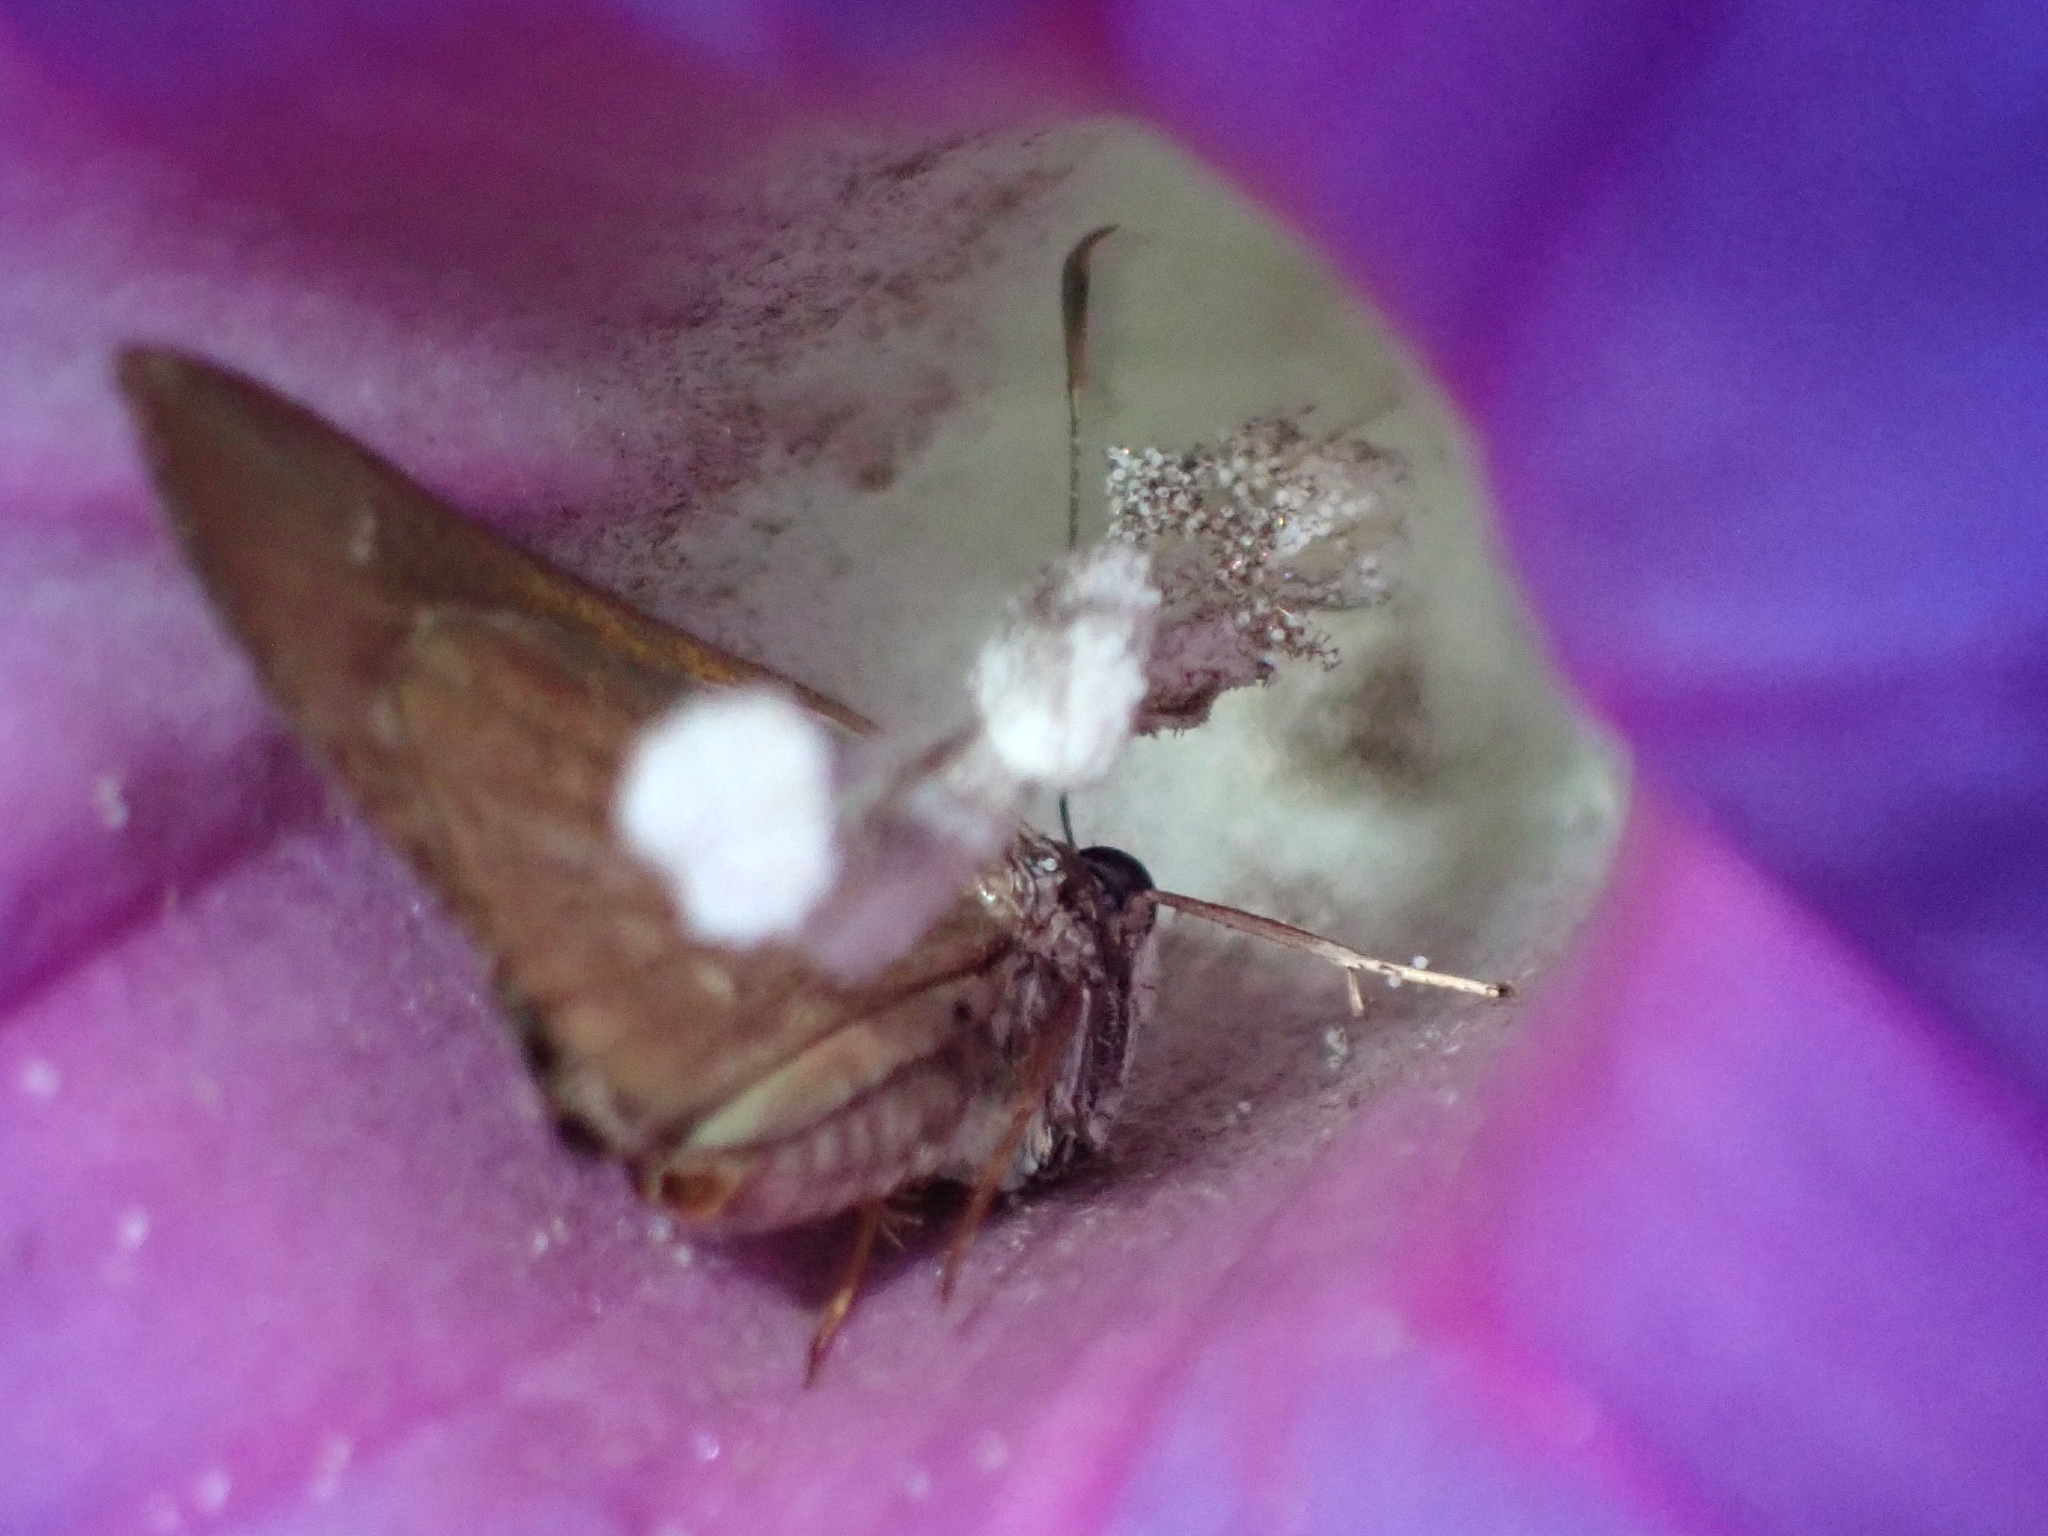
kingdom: Animalia
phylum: Arthropoda
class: Insecta
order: Lepidoptera
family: Hesperiidae
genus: Cymaenes
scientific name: Cymaenes tripunctus
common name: Dingy dotted skipper
